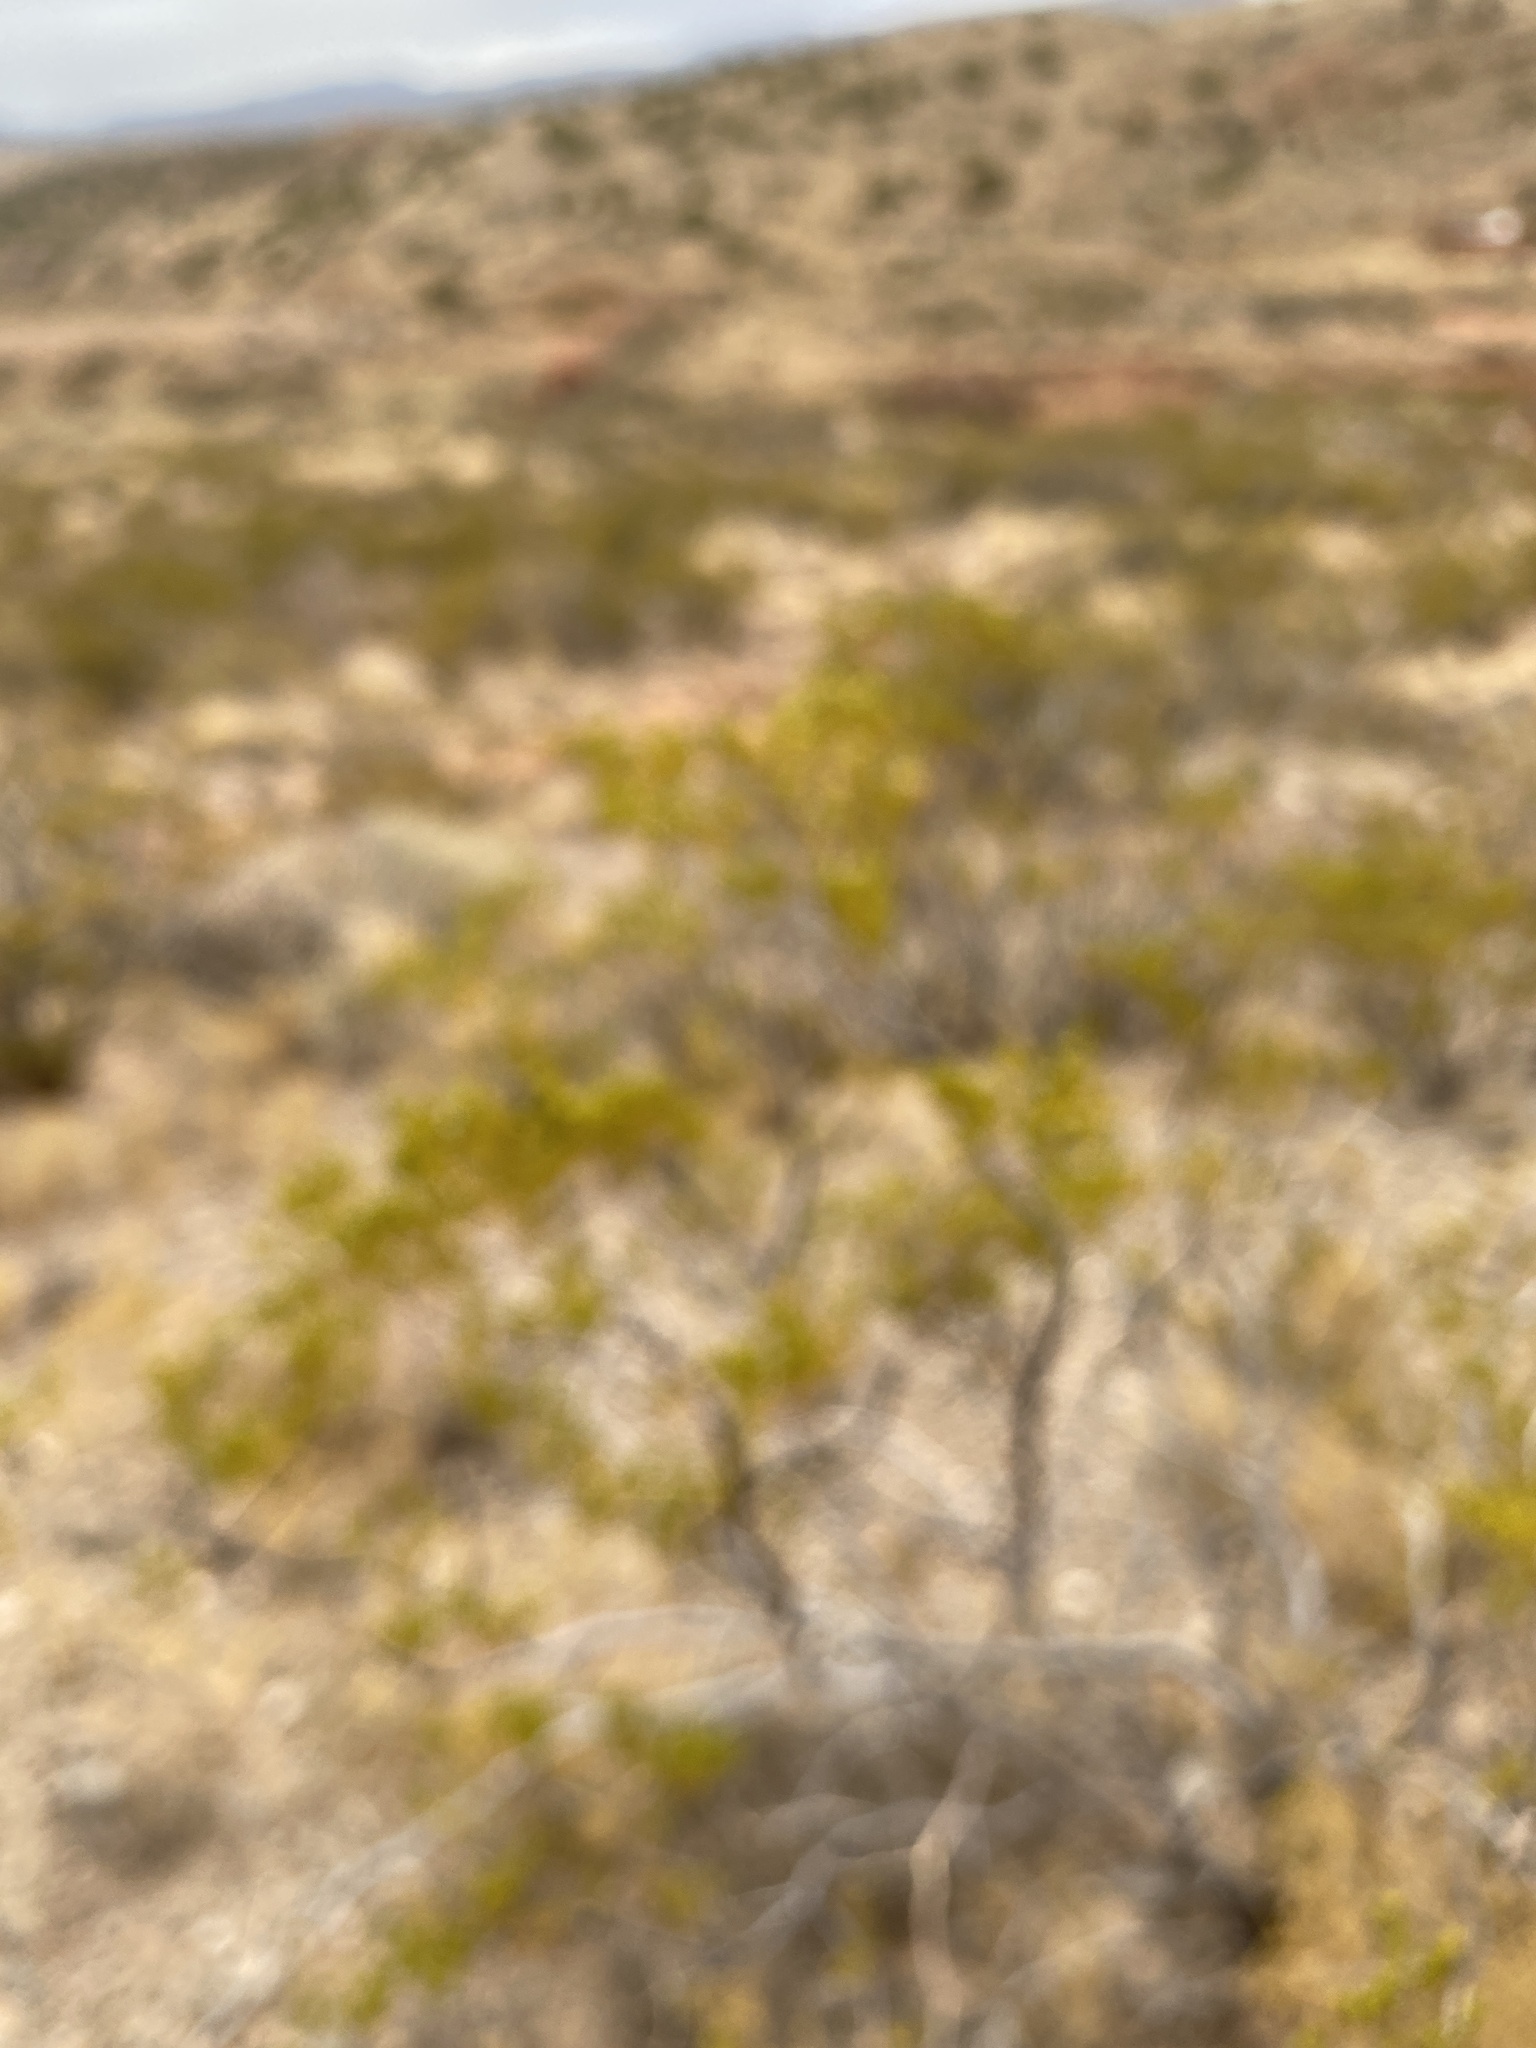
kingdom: Plantae
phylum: Tracheophyta
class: Magnoliopsida
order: Zygophyllales
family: Zygophyllaceae
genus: Larrea
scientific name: Larrea tridentata
